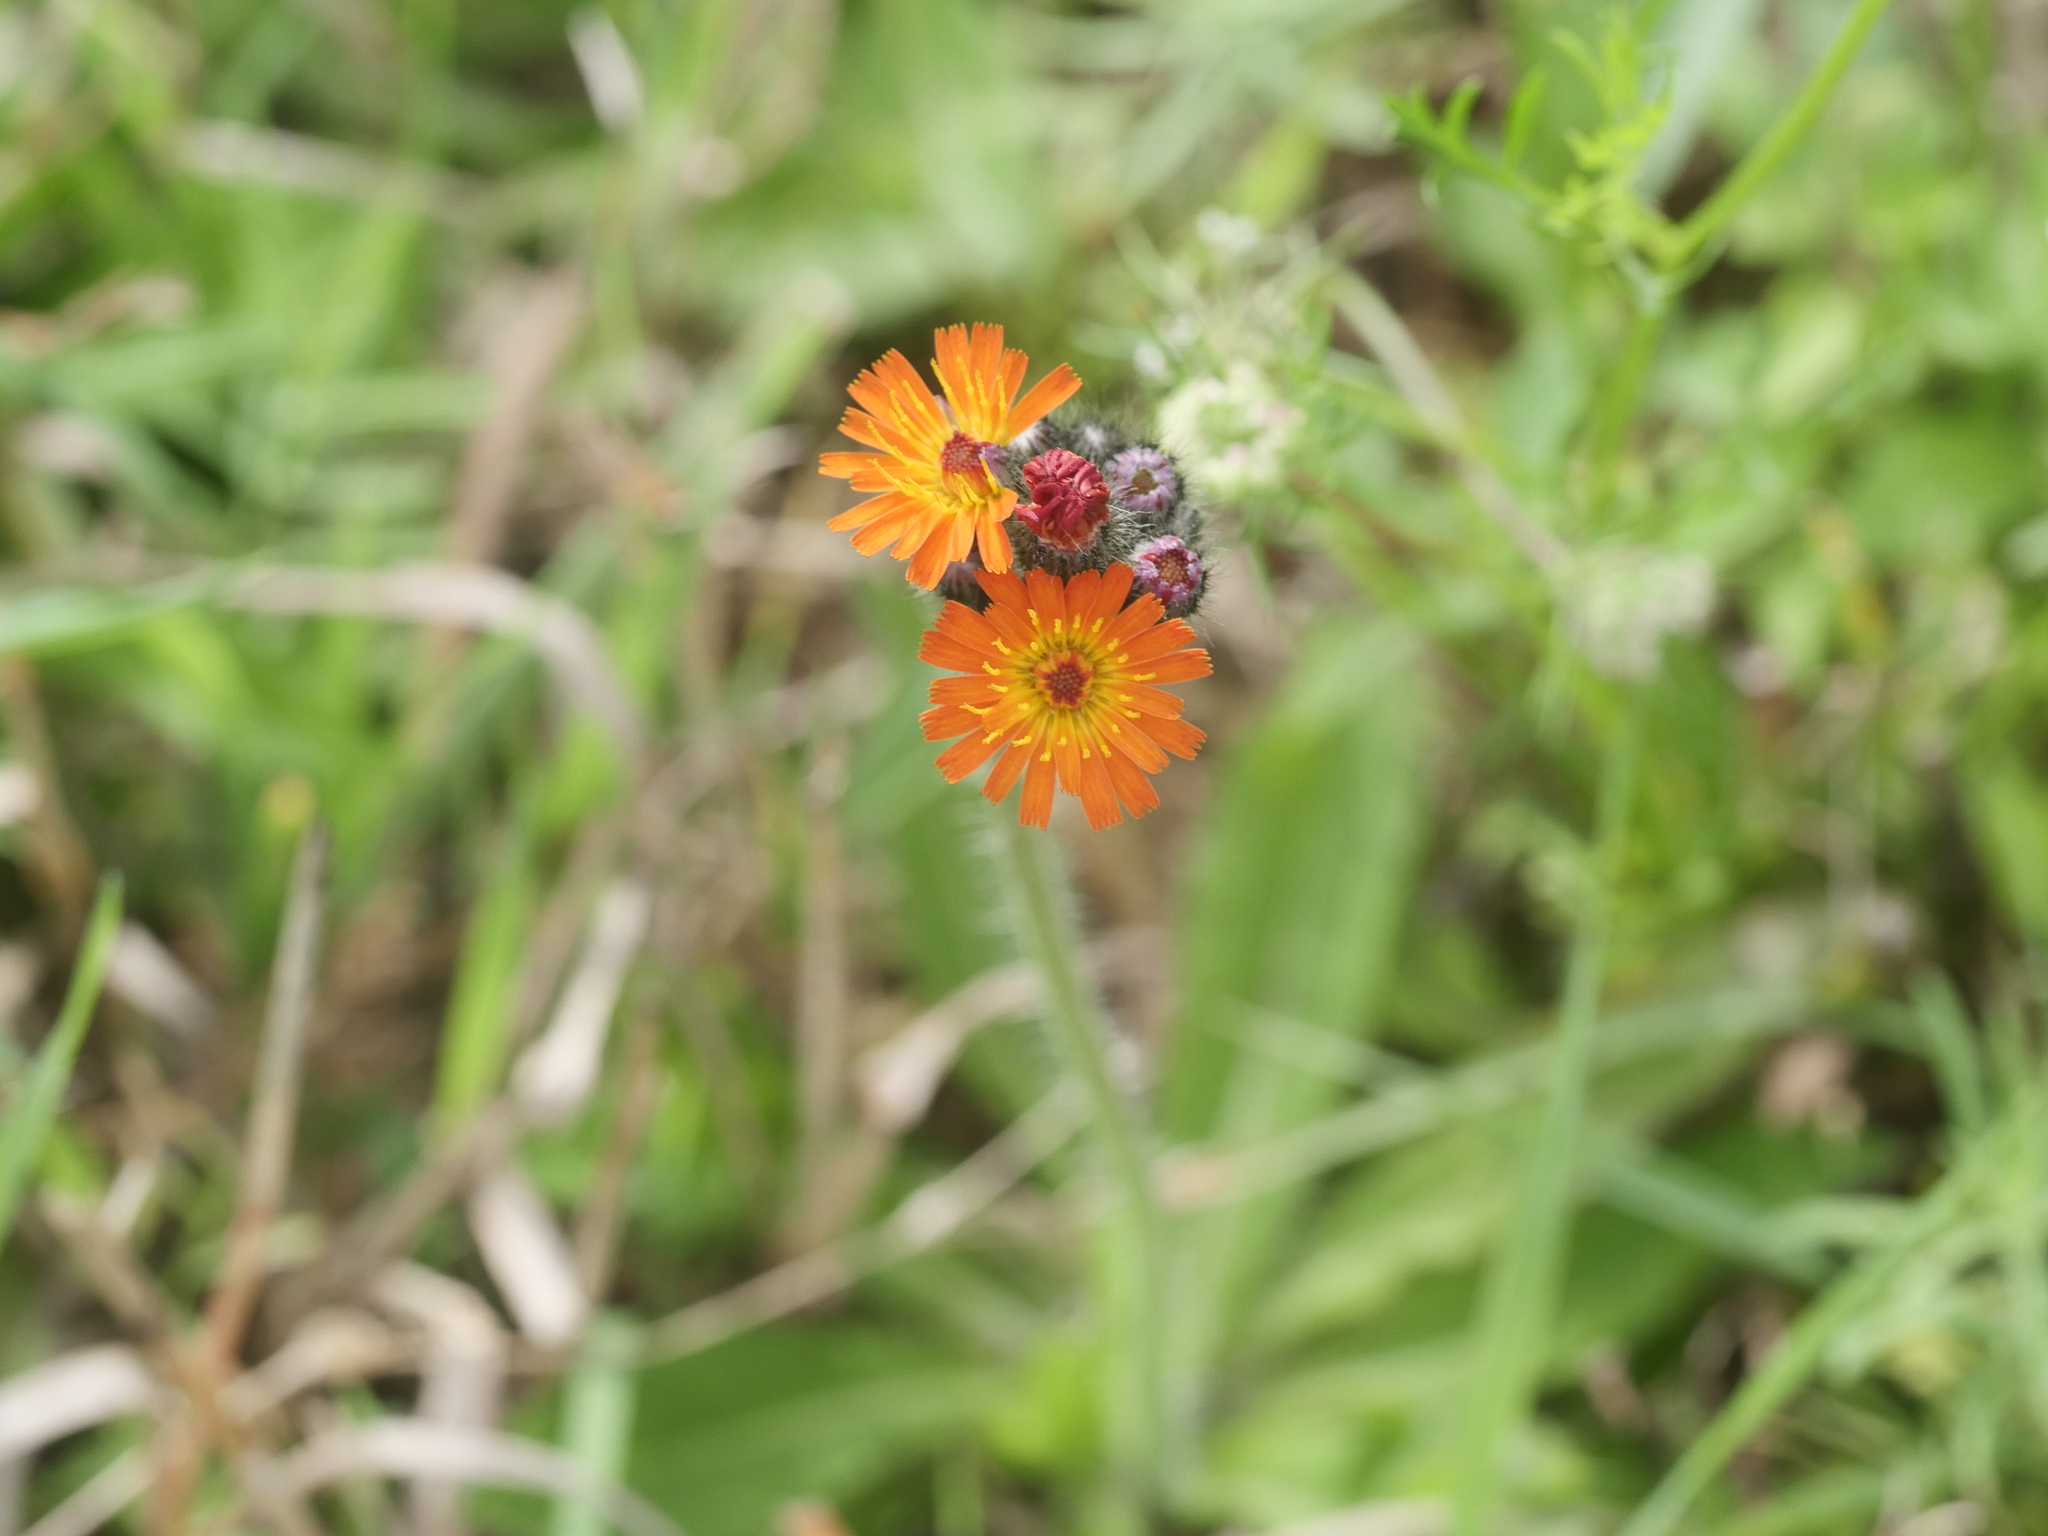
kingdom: Plantae
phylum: Tracheophyta
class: Magnoliopsida
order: Asterales
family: Asteraceae
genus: Pilosella
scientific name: Pilosella aurantiaca
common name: Fox-and-cubs
